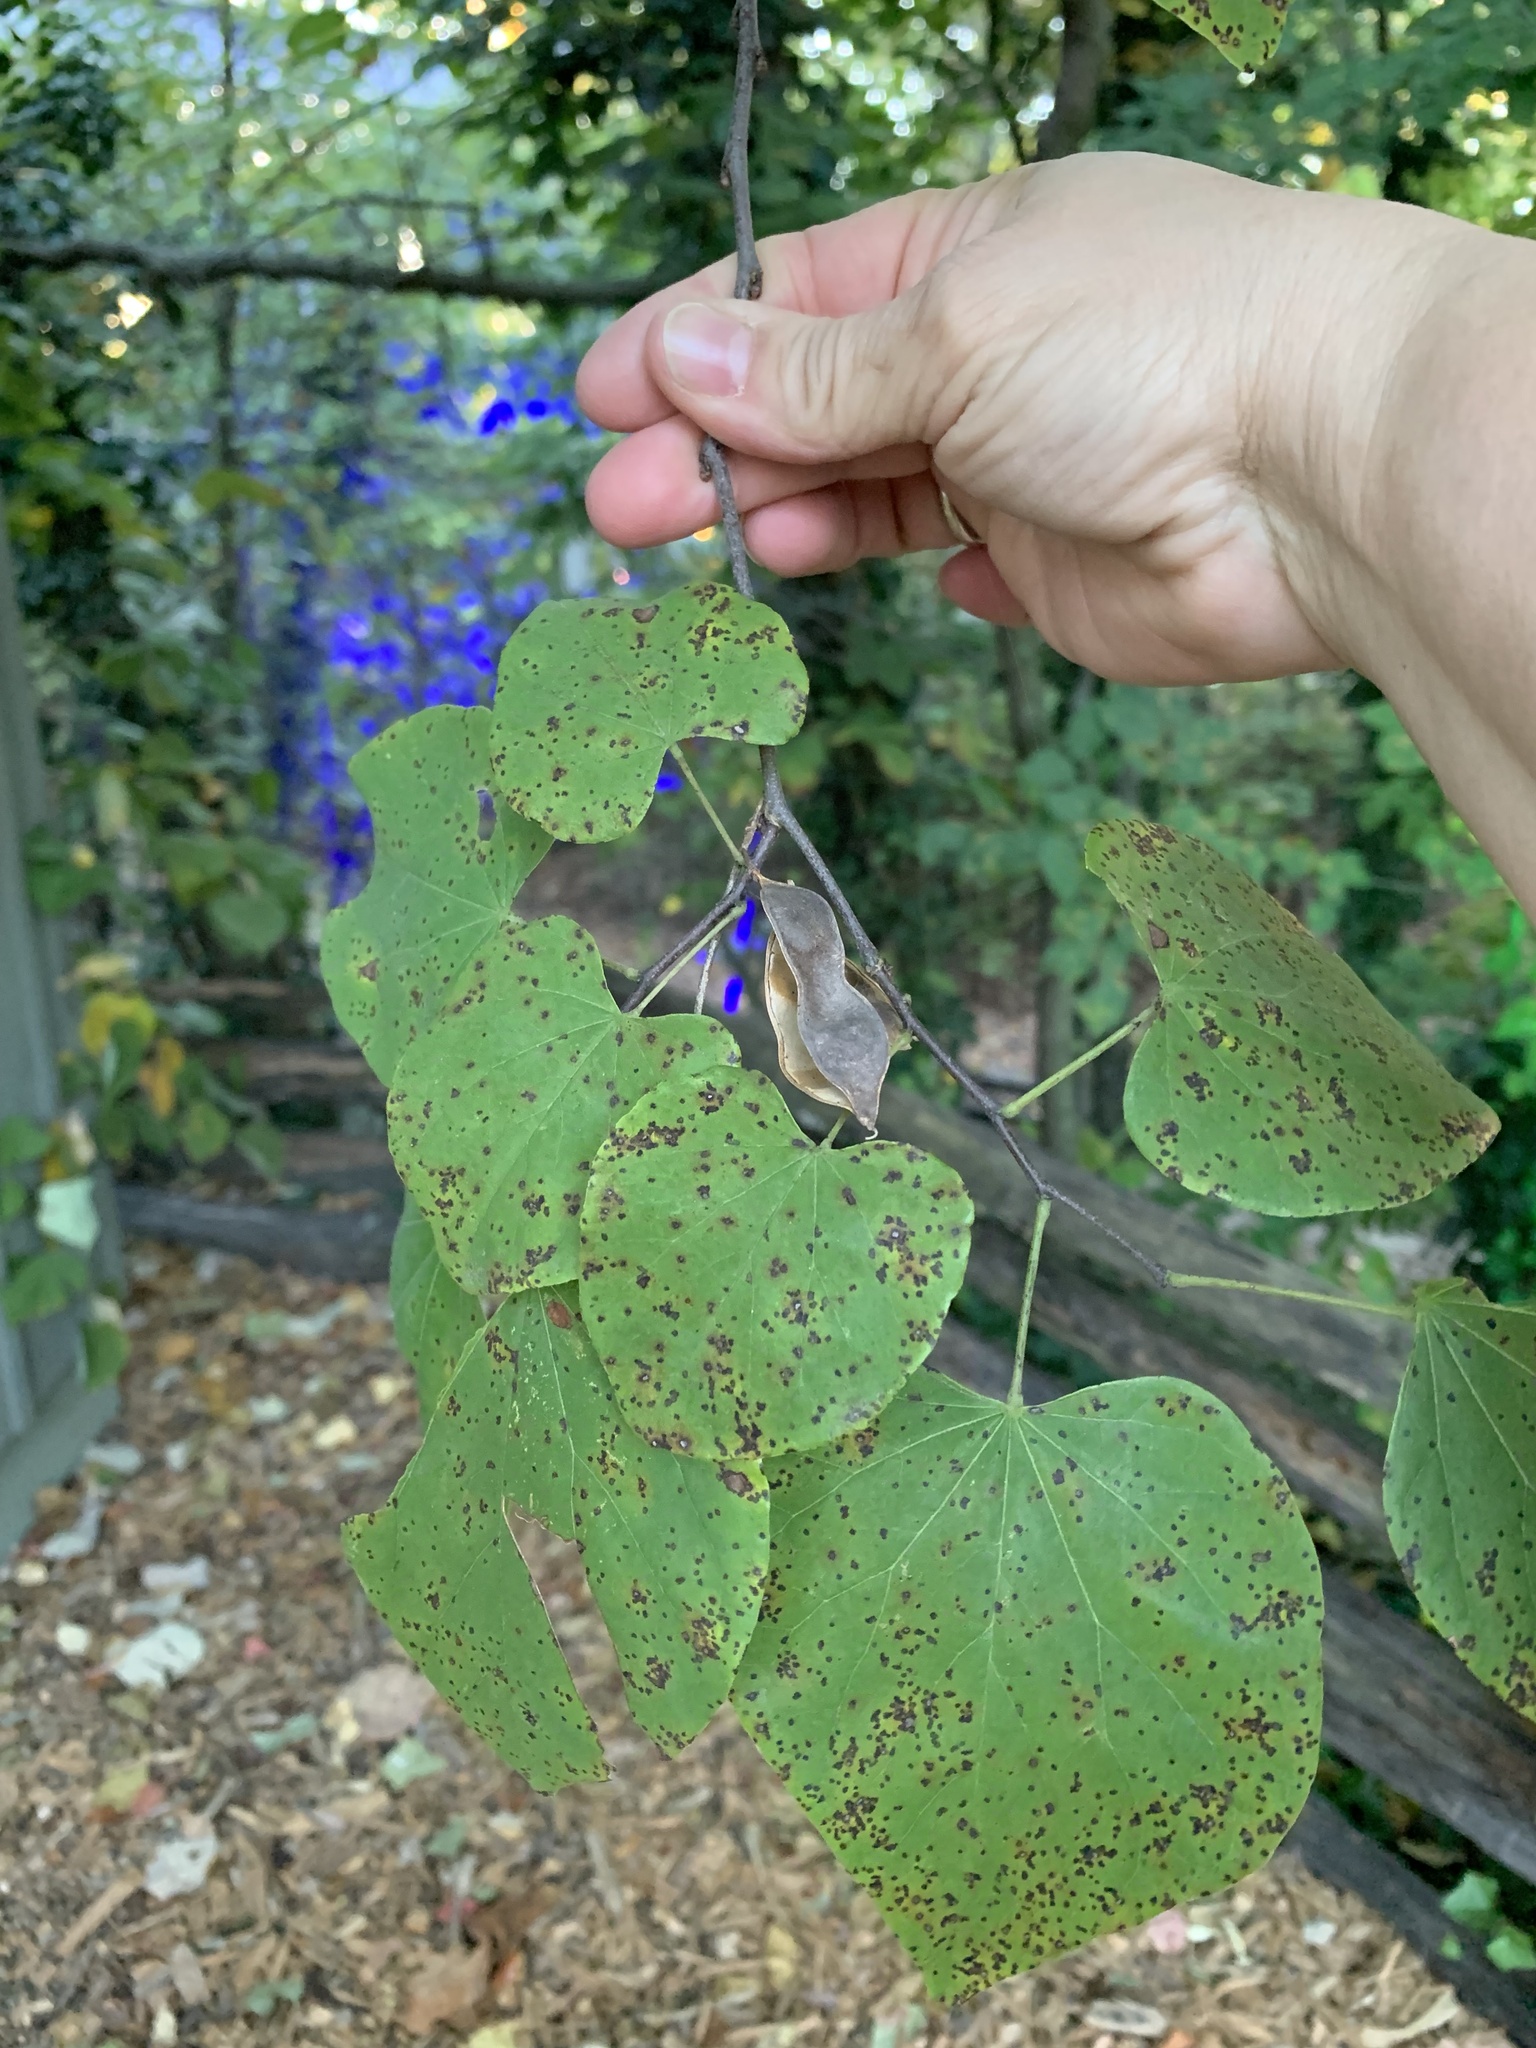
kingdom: Plantae
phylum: Tracheophyta
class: Magnoliopsida
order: Fabales
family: Fabaceae
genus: Cercis
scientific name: Cercis canadensis
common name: Eastern redbud
